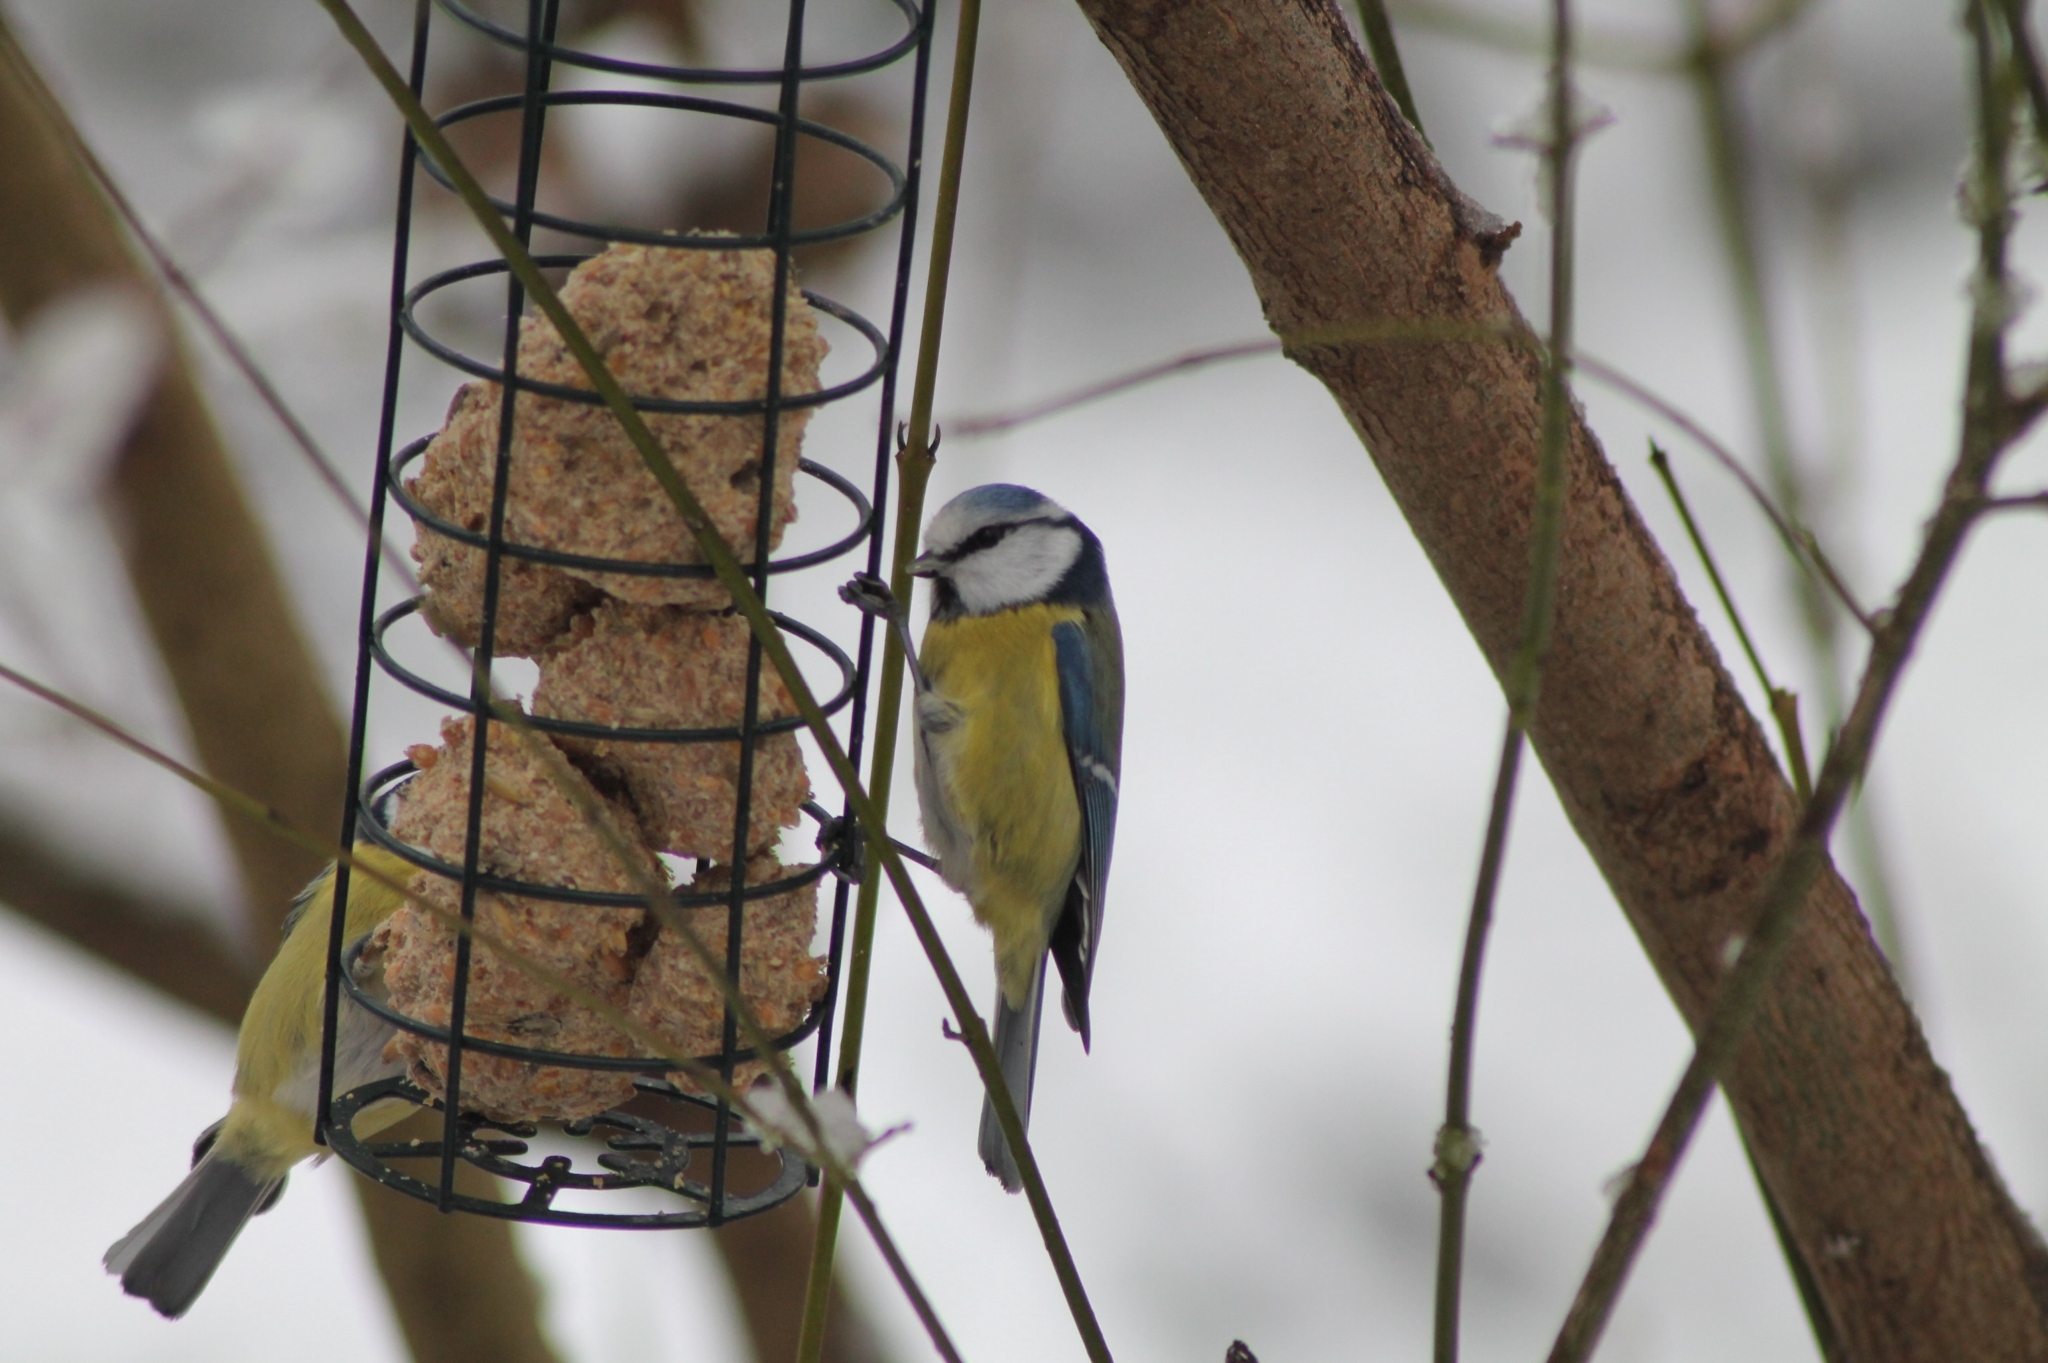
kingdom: Animalia
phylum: Chordata
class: Aves
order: Passeriformes
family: Paridae
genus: Cyanistes
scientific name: Cyanistes caeruleus
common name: Eurasian blue tit
